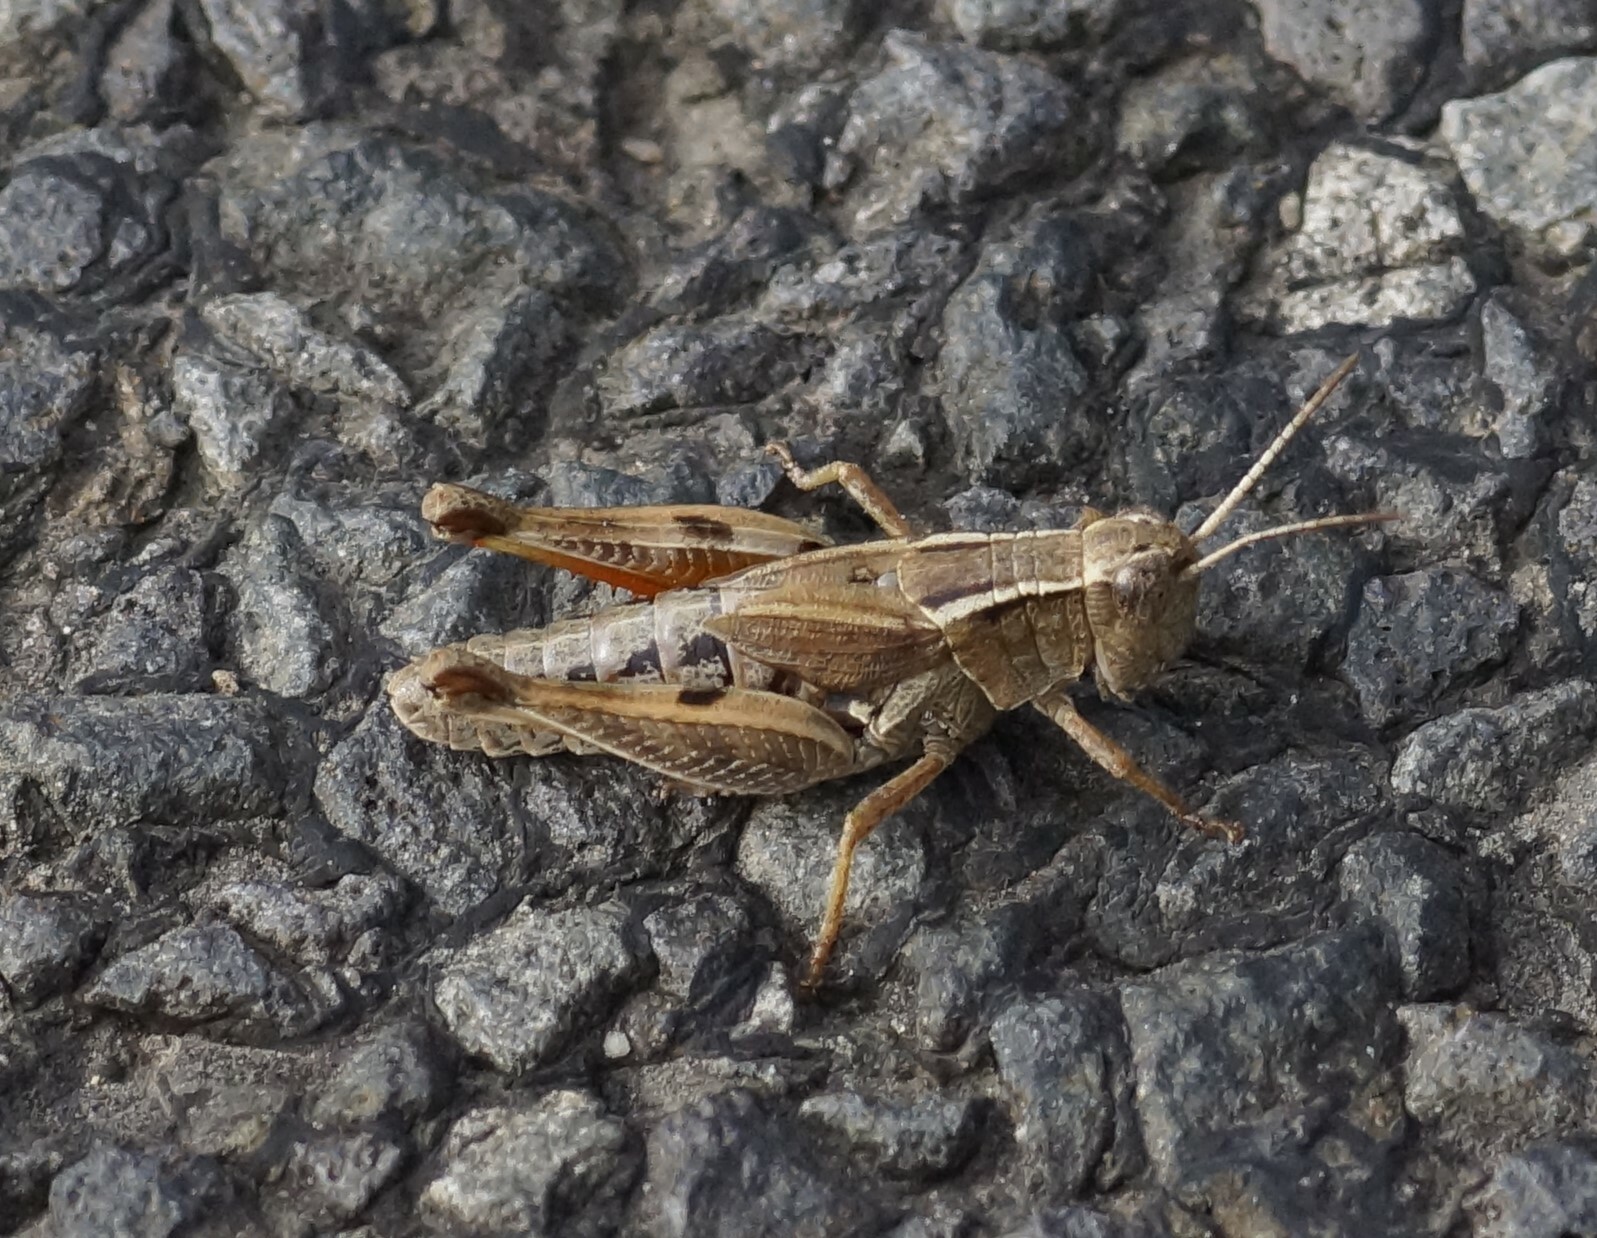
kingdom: Animalia
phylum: Arthropoda
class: Insecta
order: Orthoptera
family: Acrididae
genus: Phaulacridium
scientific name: Phaulacridium vittatum
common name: Wingless grasshopper
